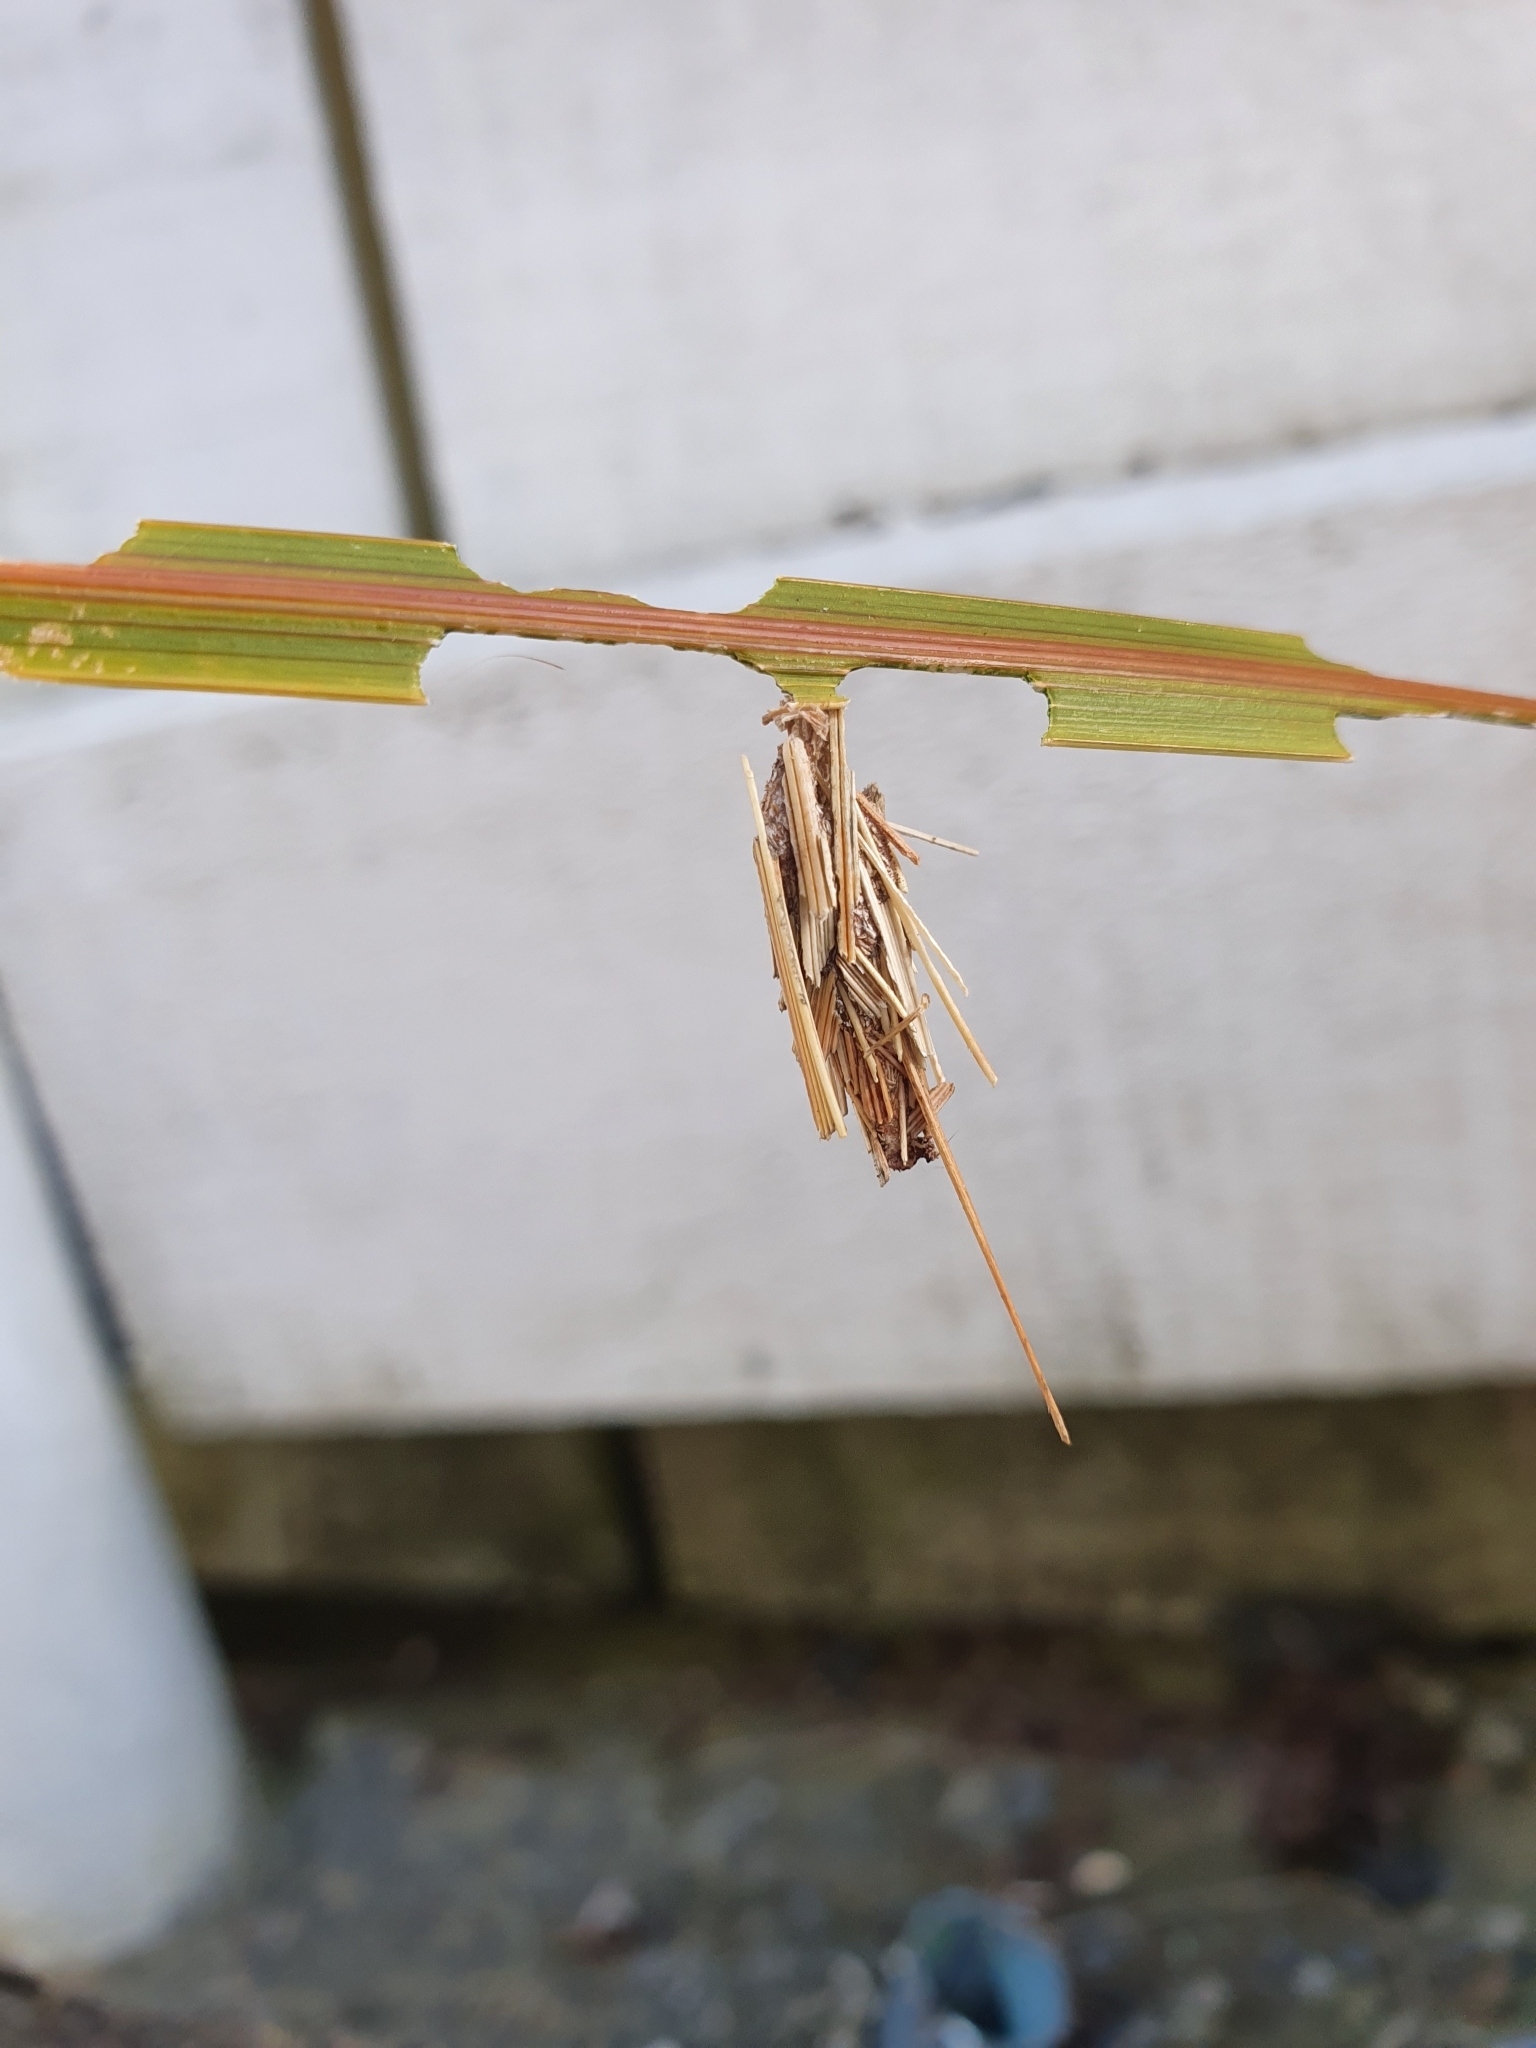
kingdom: Animalia
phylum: Arthropoda
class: Insecta
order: Lepidoptera
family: Psychidae
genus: Liothula
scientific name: Liothula omnivora
